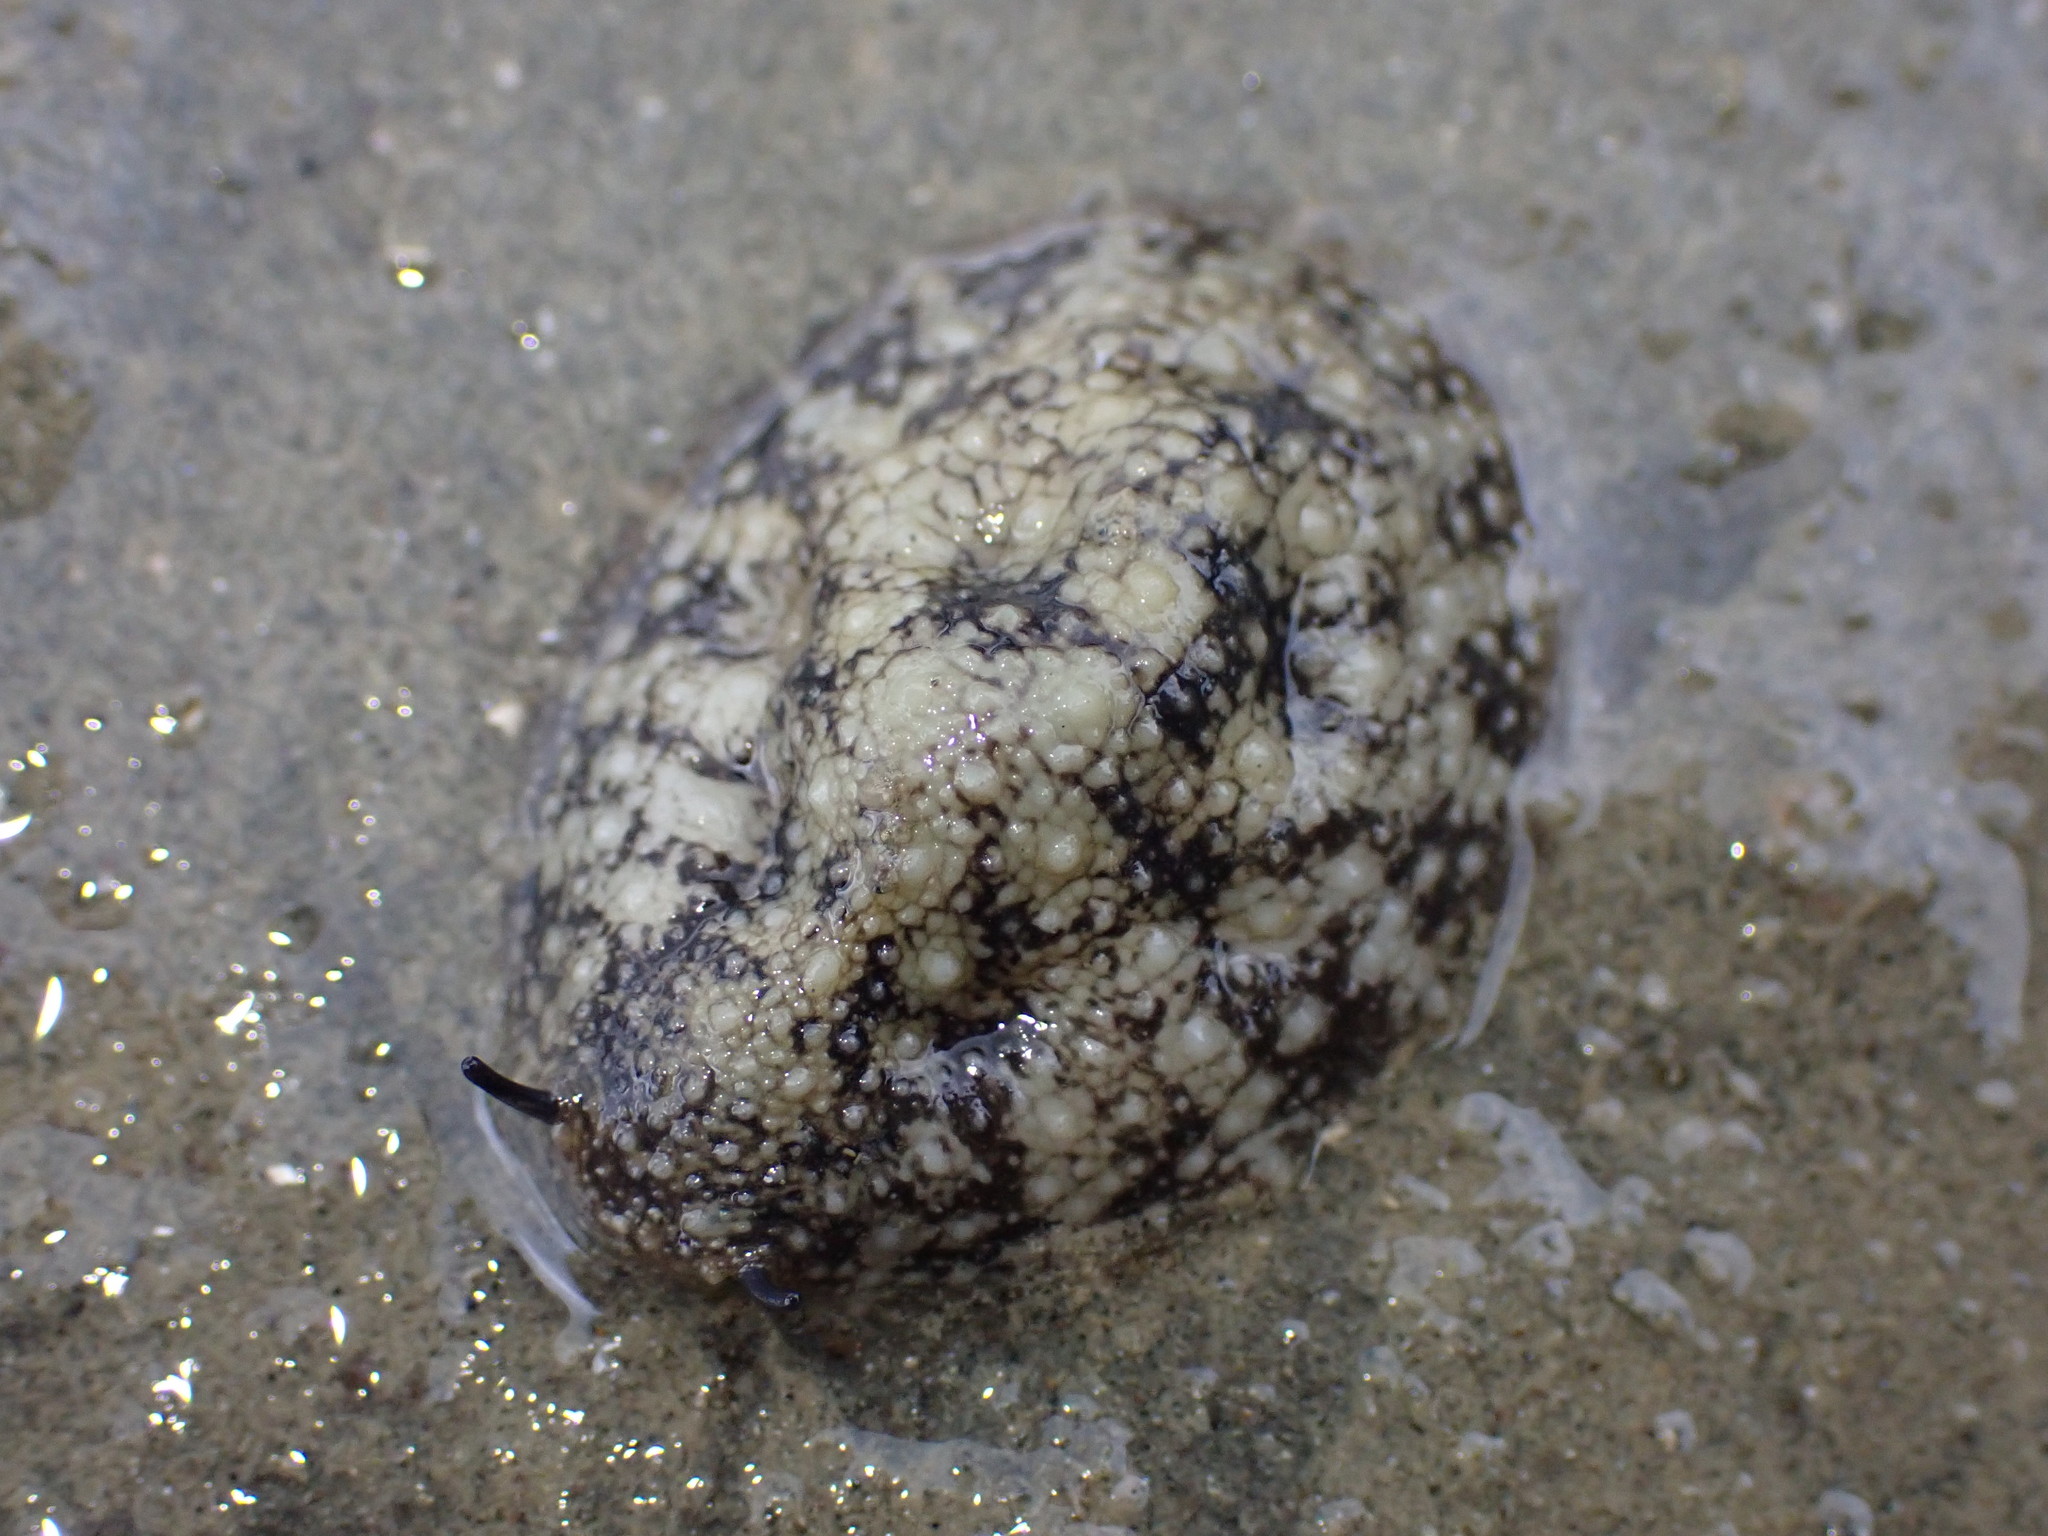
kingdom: Animalia
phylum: Mollusca
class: Gastropoda
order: Systellommatophora
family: Onchidiidae
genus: Onchidella
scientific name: Onchidella nigricans
